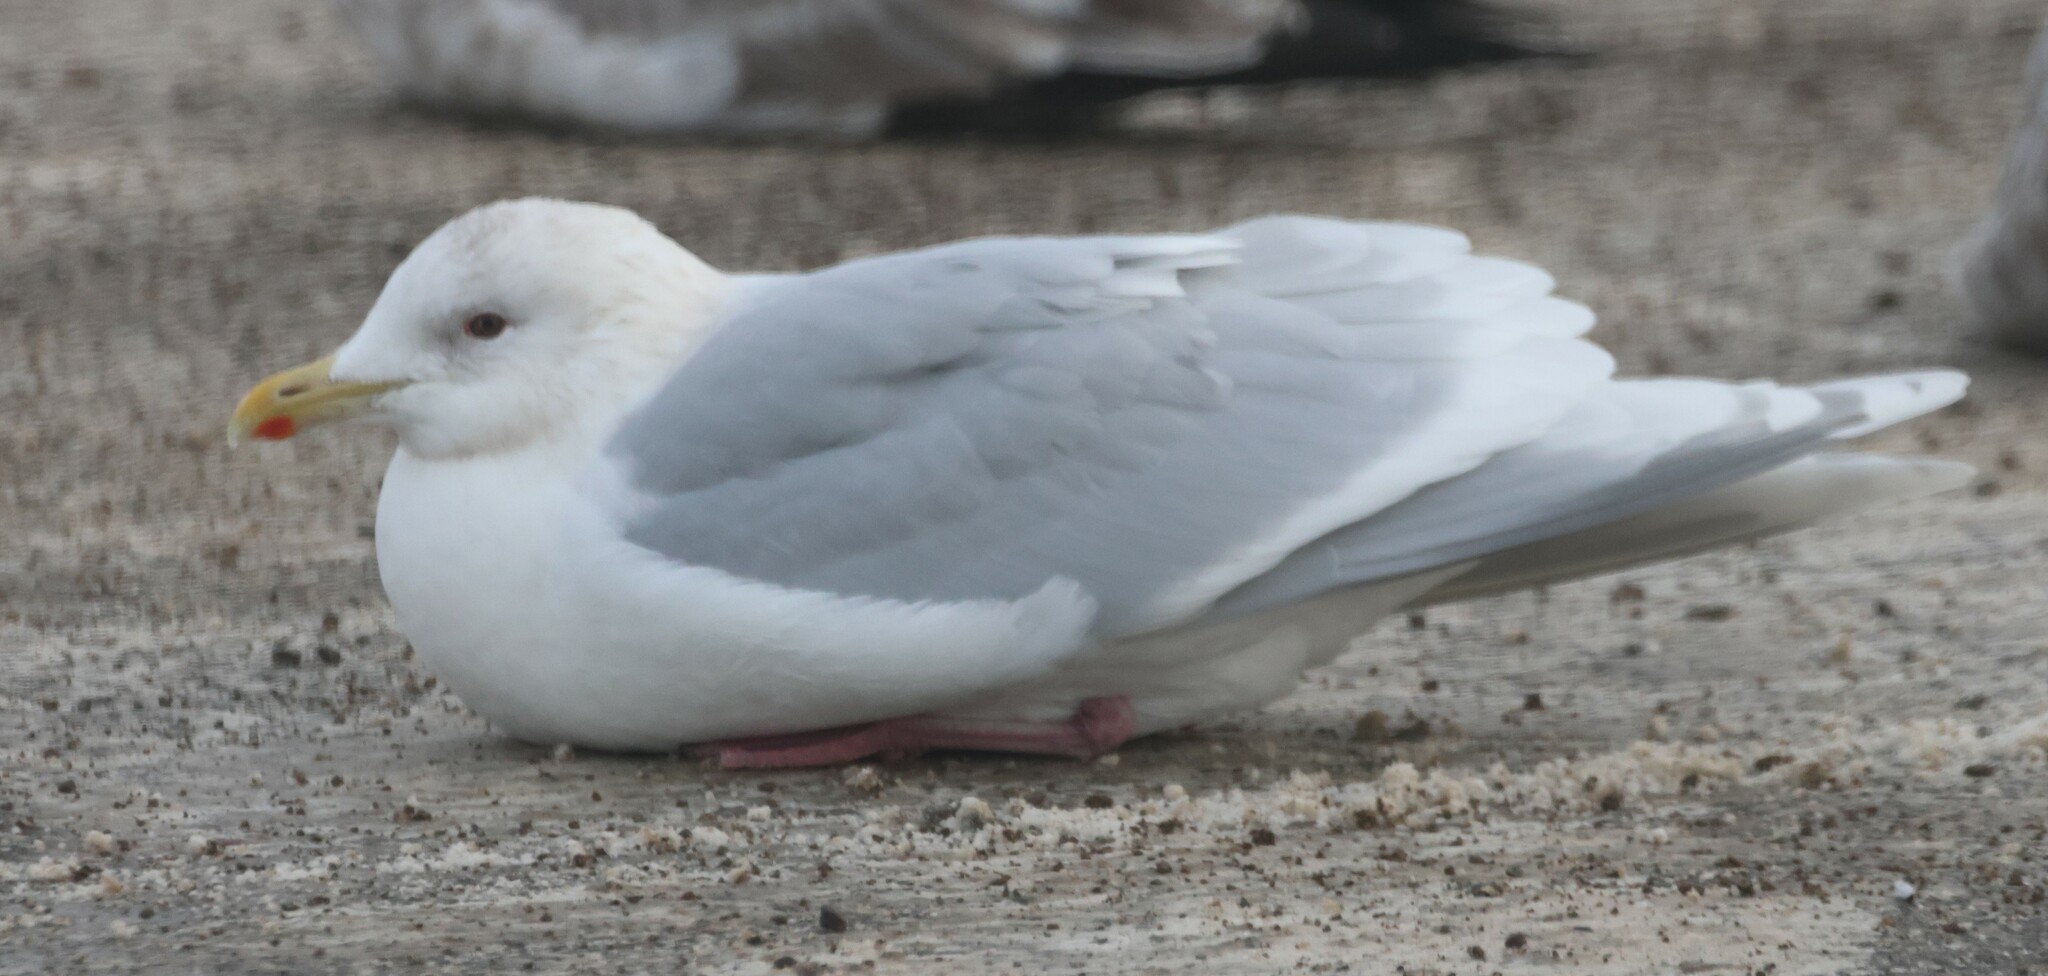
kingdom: Animalia
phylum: Chordata
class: Aves
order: Charadriiformes
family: Laridae
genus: Larus
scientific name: Larus glaucoides
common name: Iceland gull
